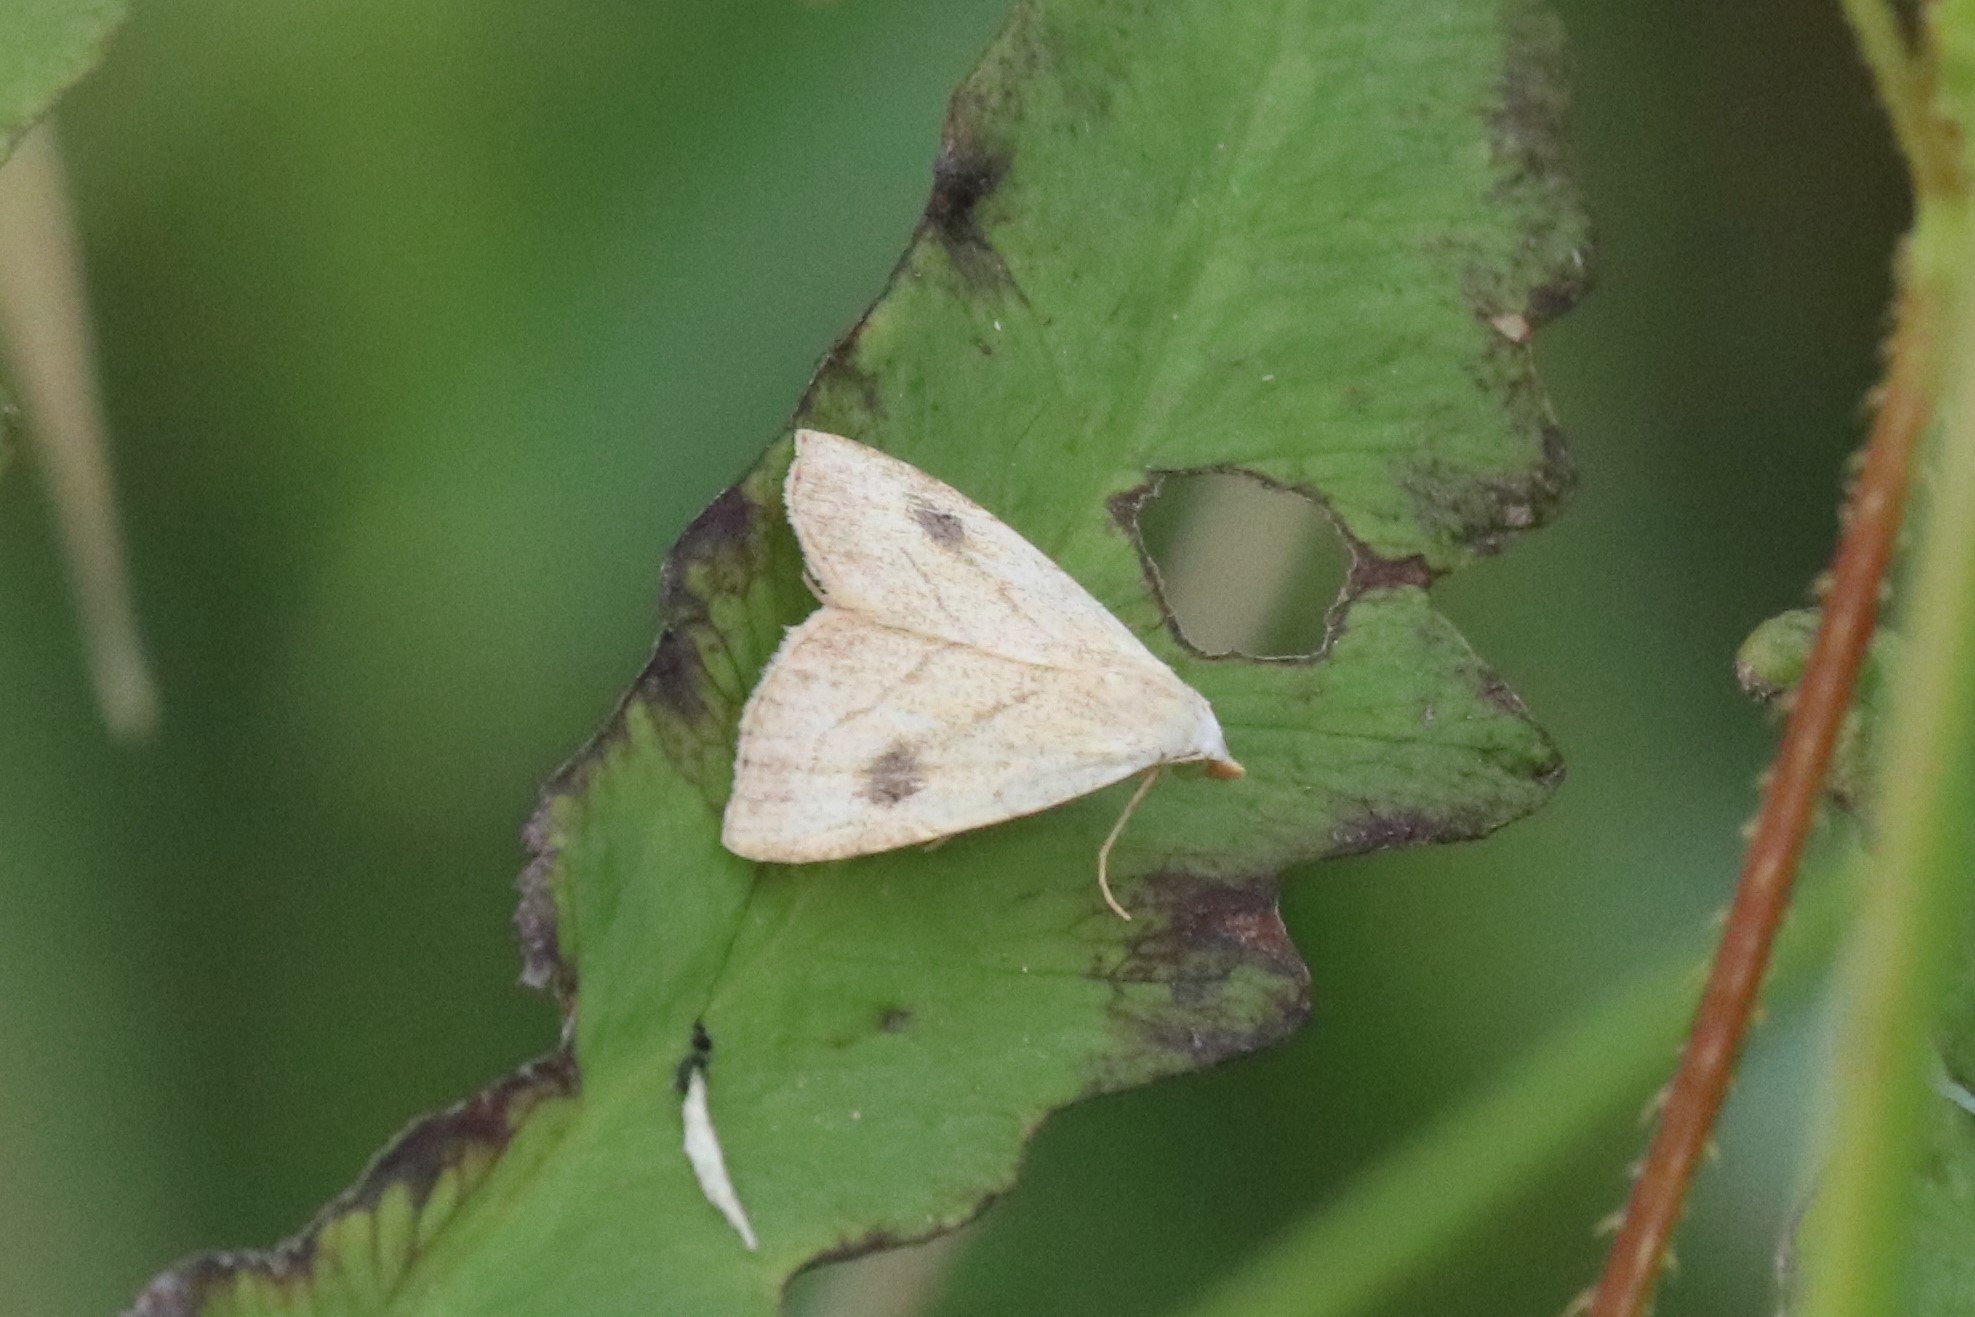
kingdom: Animalia
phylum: Arthropoda
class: Insecta
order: Lepidoptera
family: Erebidae
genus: Rivula
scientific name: Rivula propinqualis
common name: Spotted grass moth
